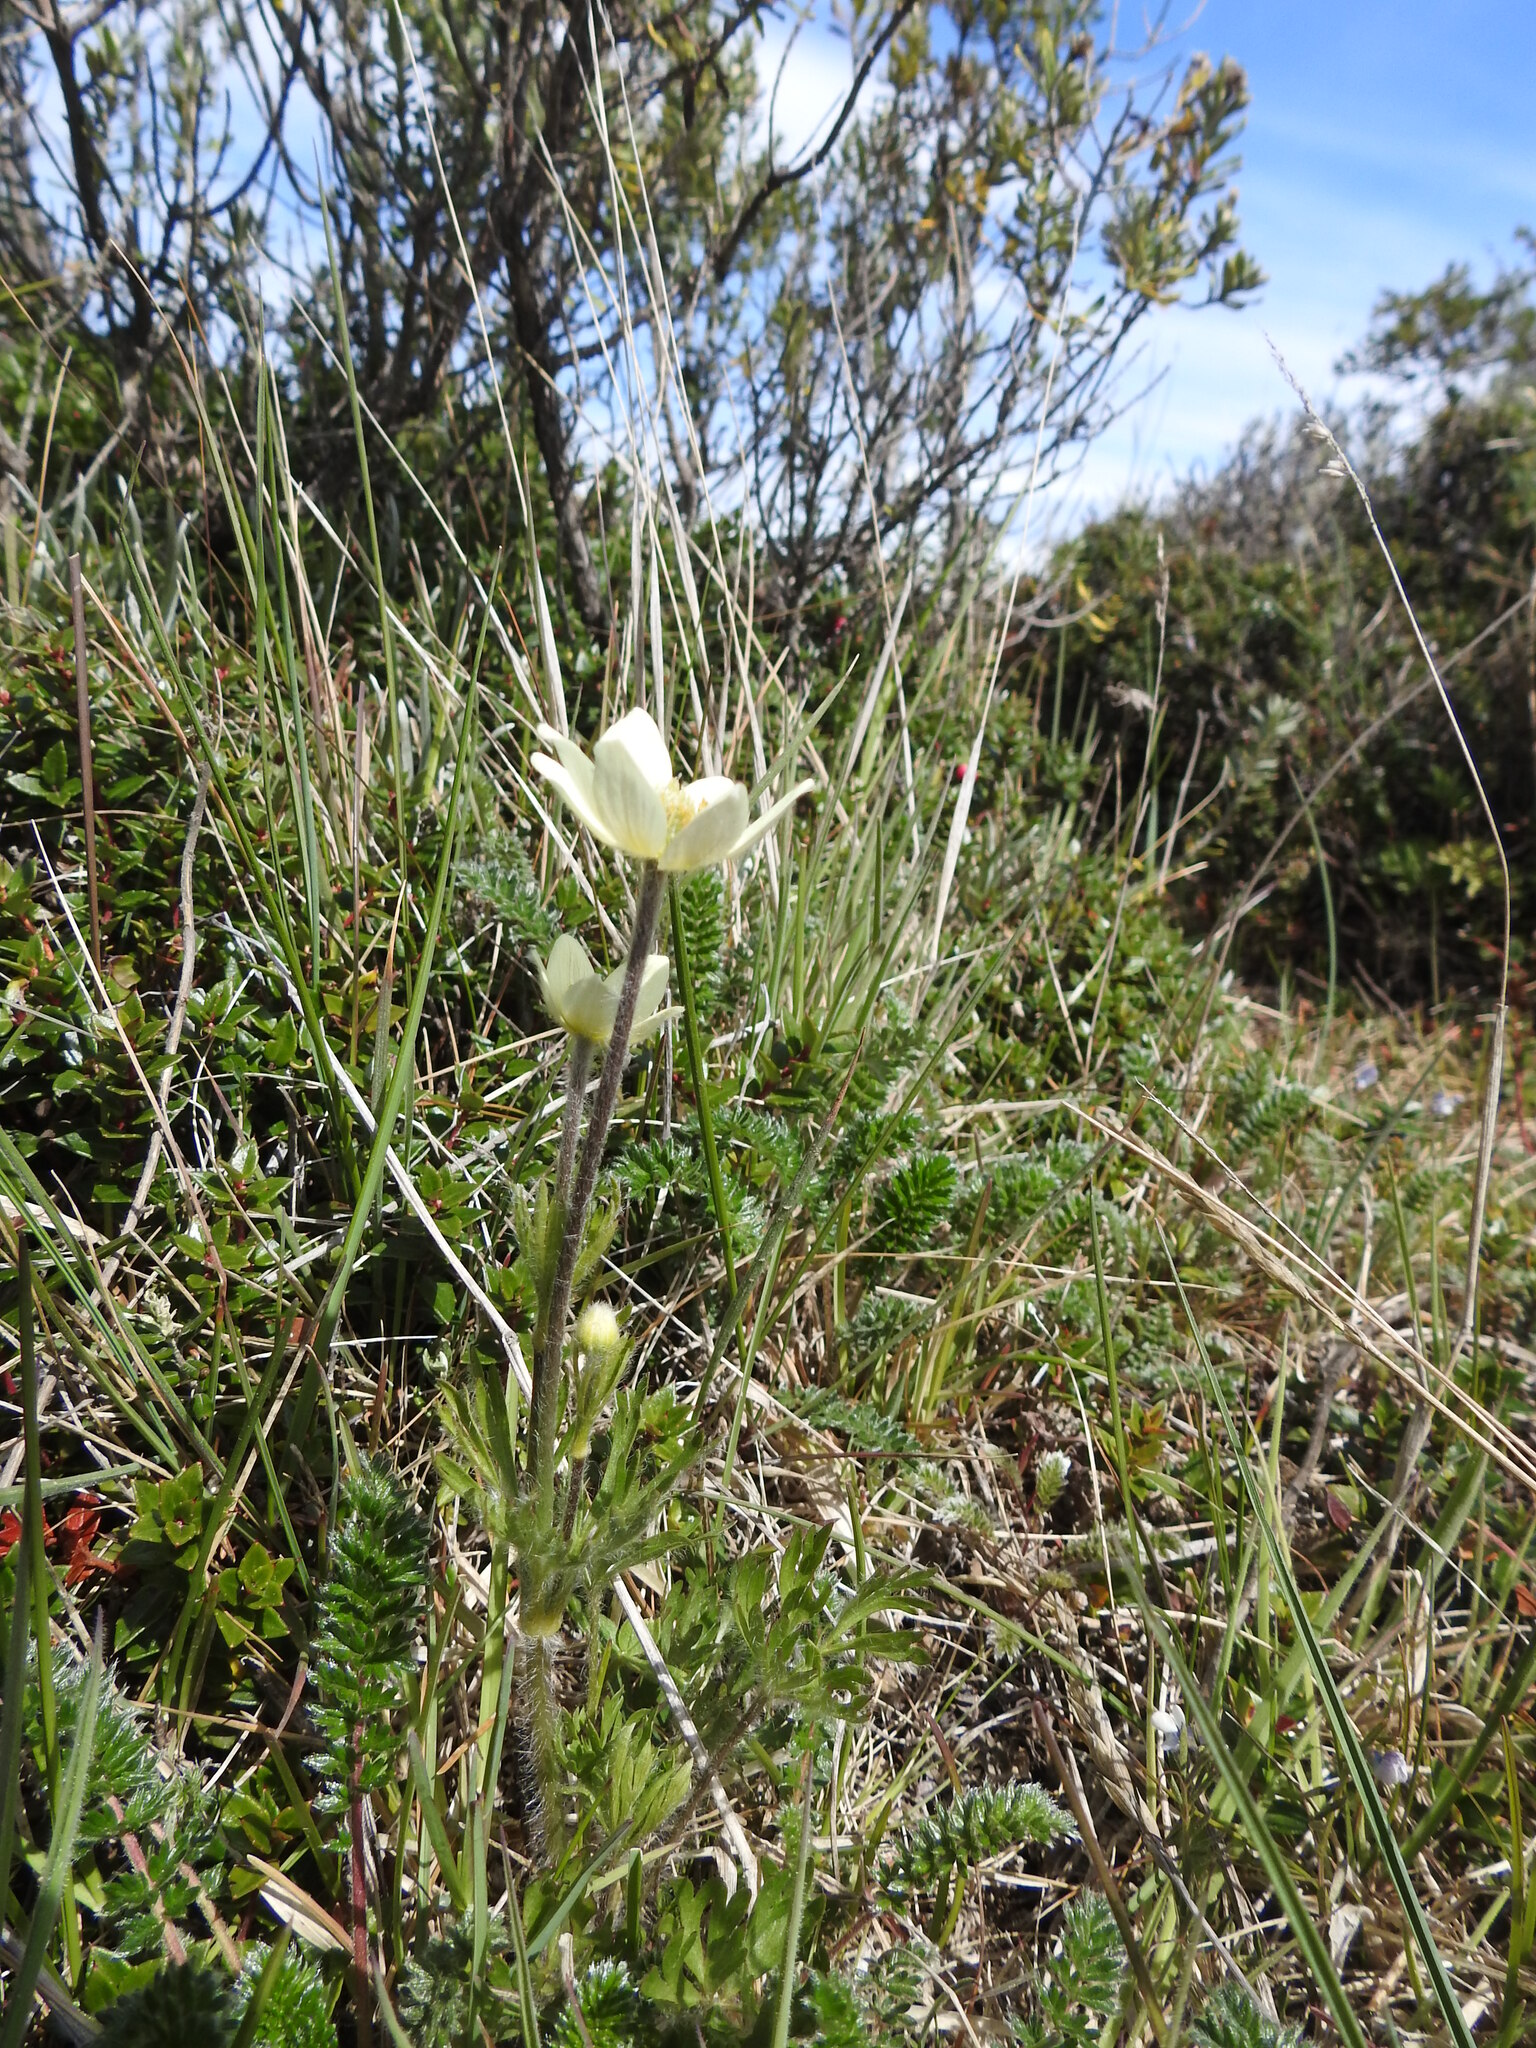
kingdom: Plantae
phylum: Tracheophyta
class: Magnoliopsida
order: Ranunculales
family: Ranunculaceae
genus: Anemone
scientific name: Anemone multifida
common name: Bird's-foot anemone
